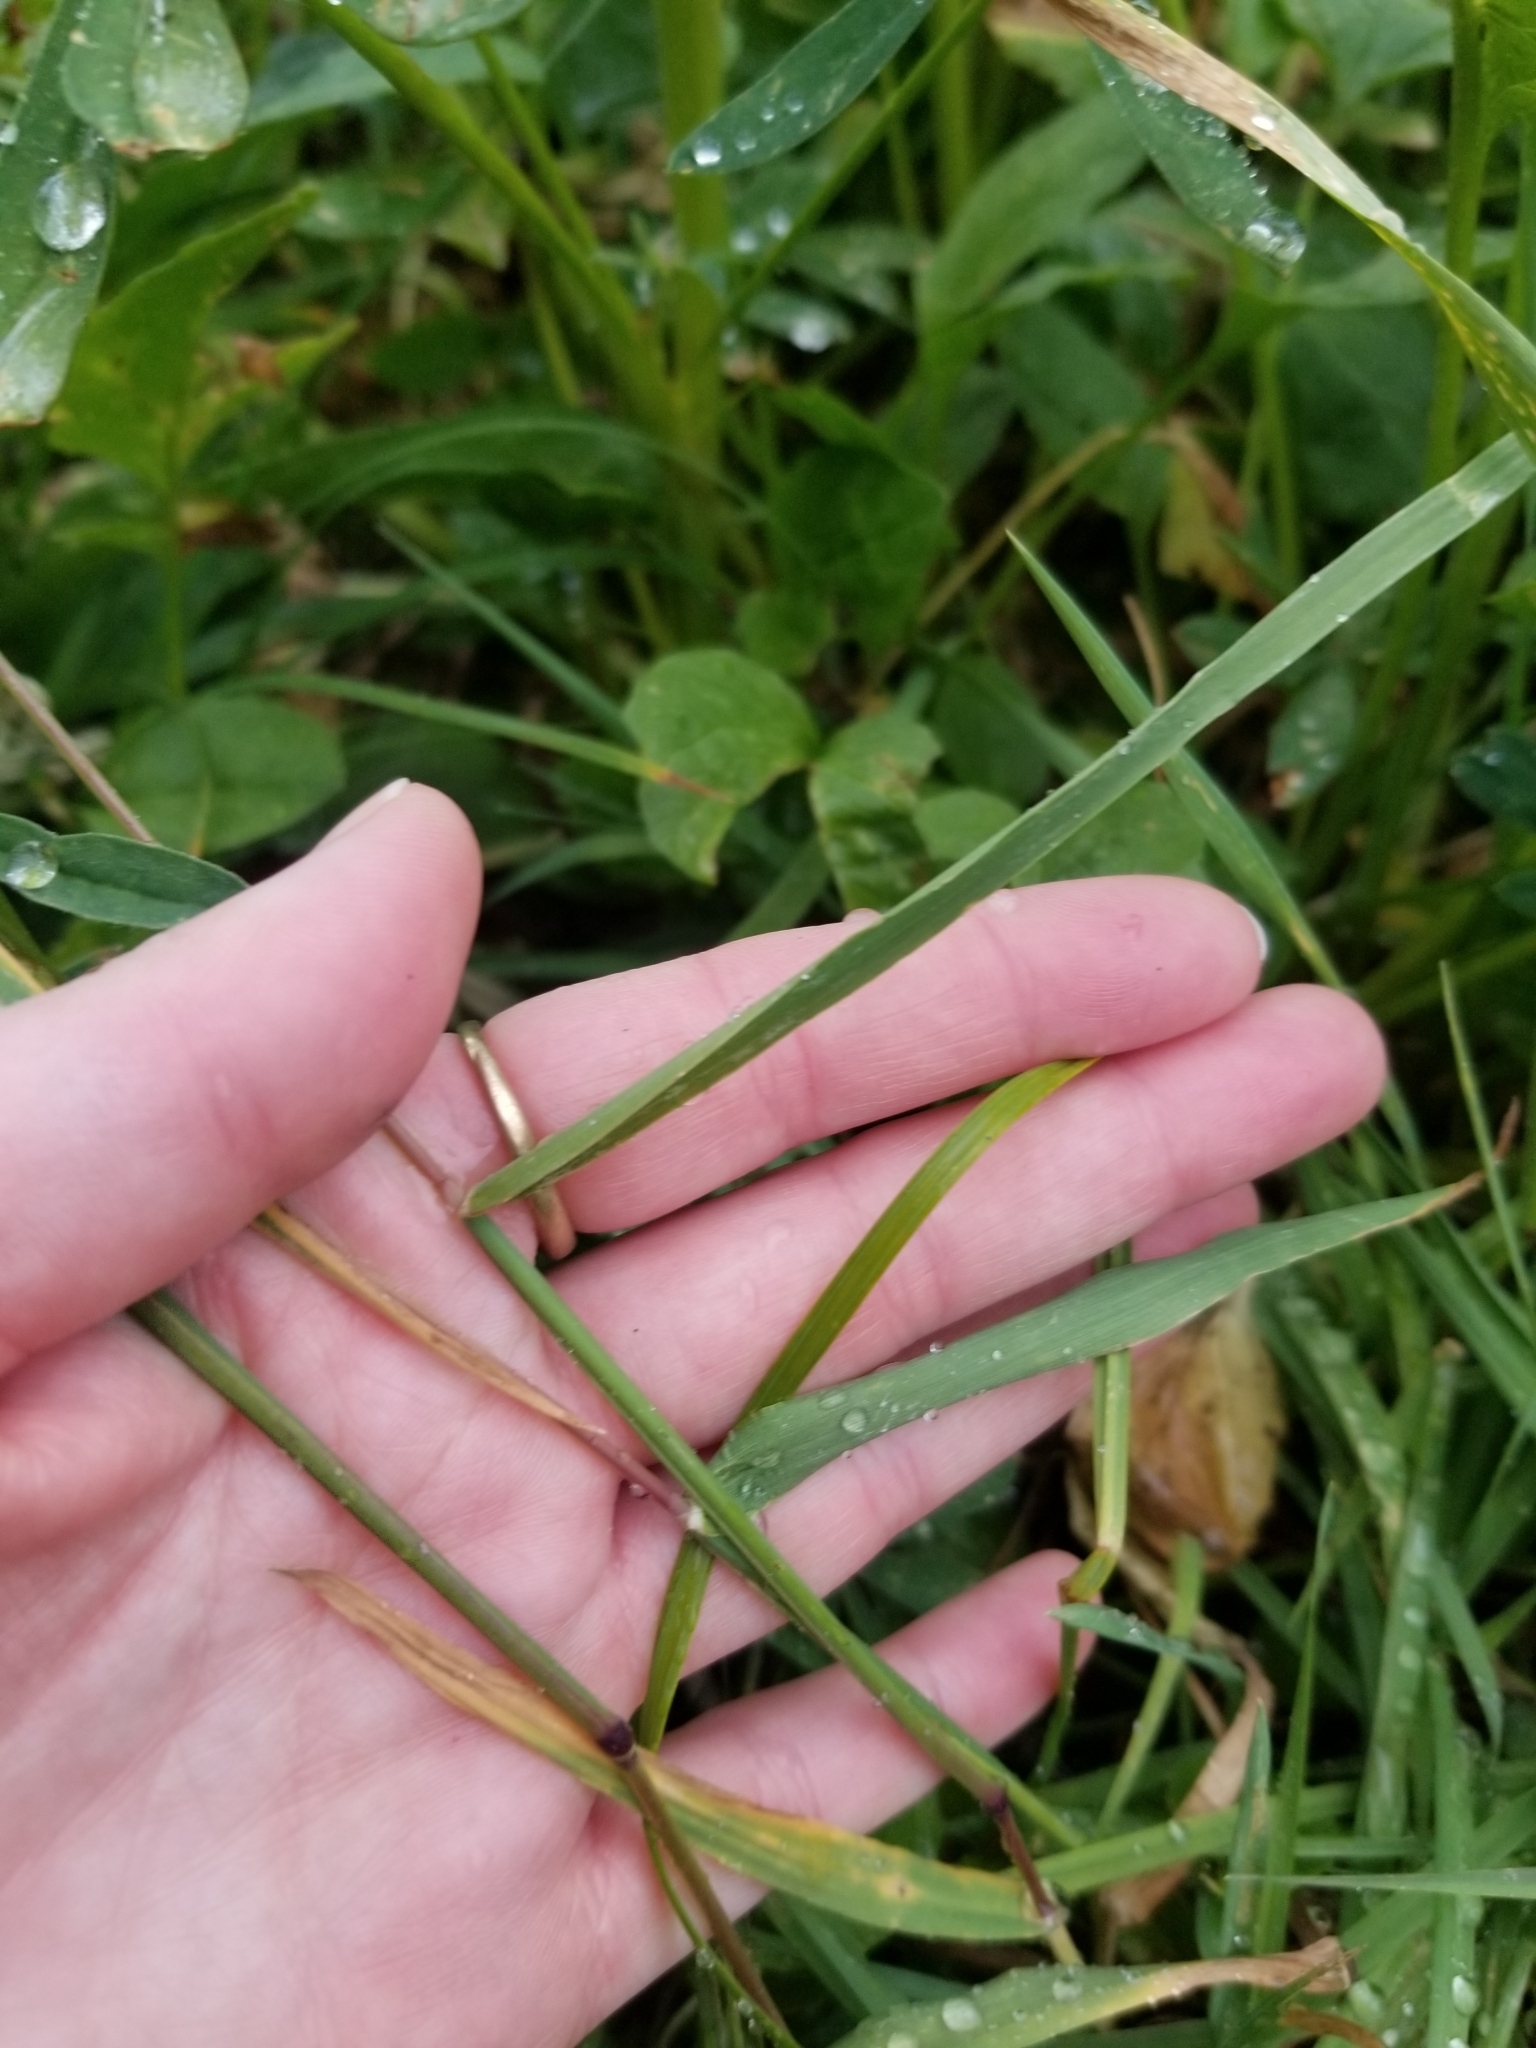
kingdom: Plantae
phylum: Tracheophyta
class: Liliopsida
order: Poales
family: Poaceae
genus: Phleum
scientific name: Phleum alpinum
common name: Alpine cat's-tail
